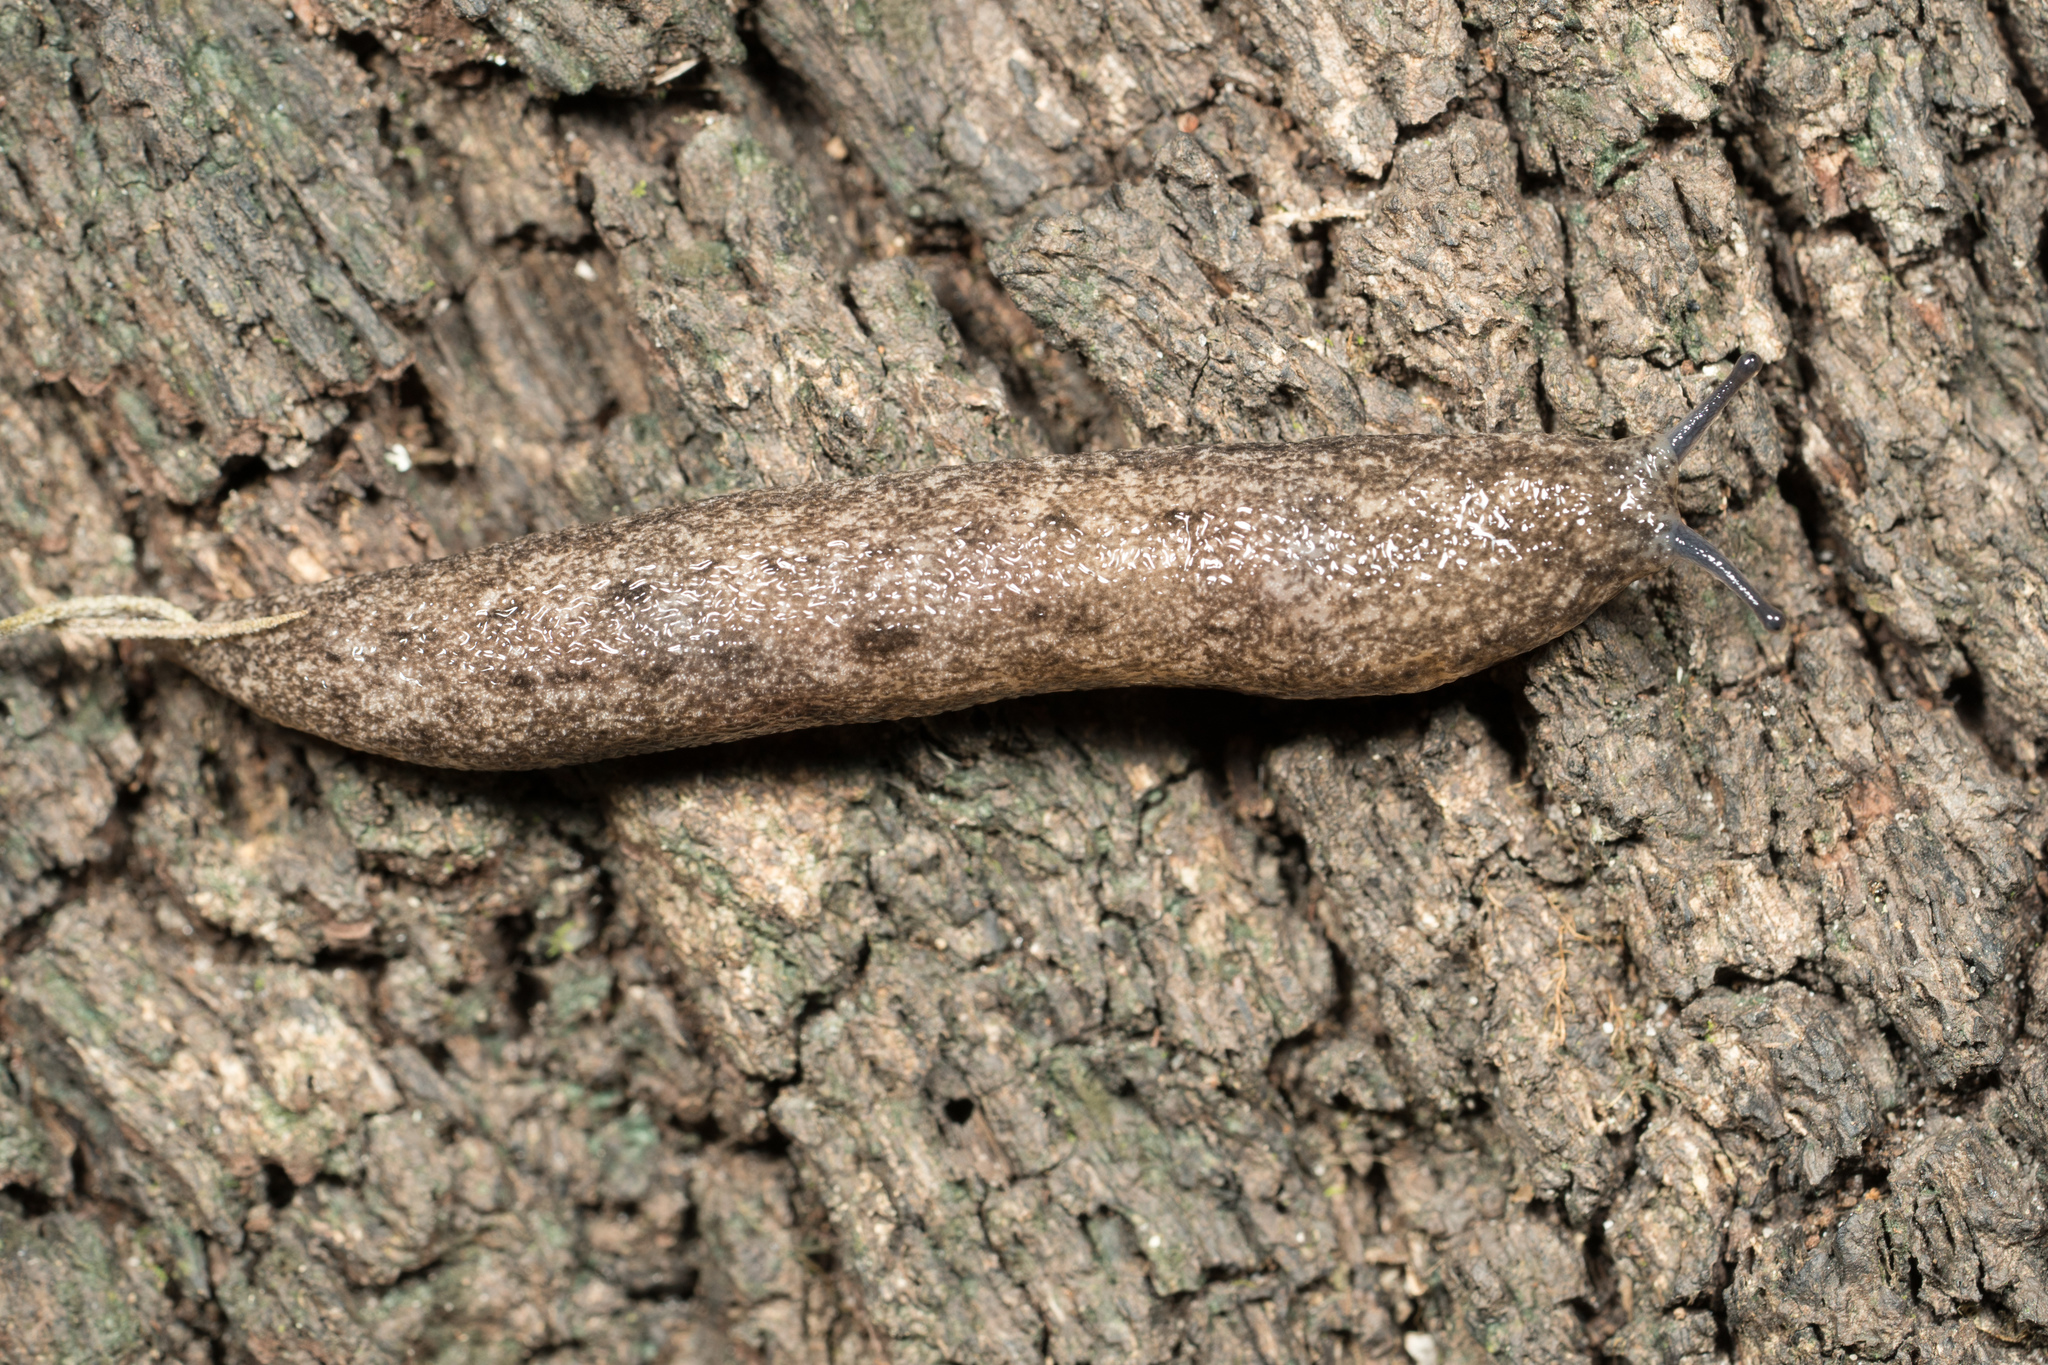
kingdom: Animalia
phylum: Mollusca
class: Gastropoda
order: Stylommatophora
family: Philomycidae
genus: Philomycus
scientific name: Philomycus carolinianus
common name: Carolina mantleslug
